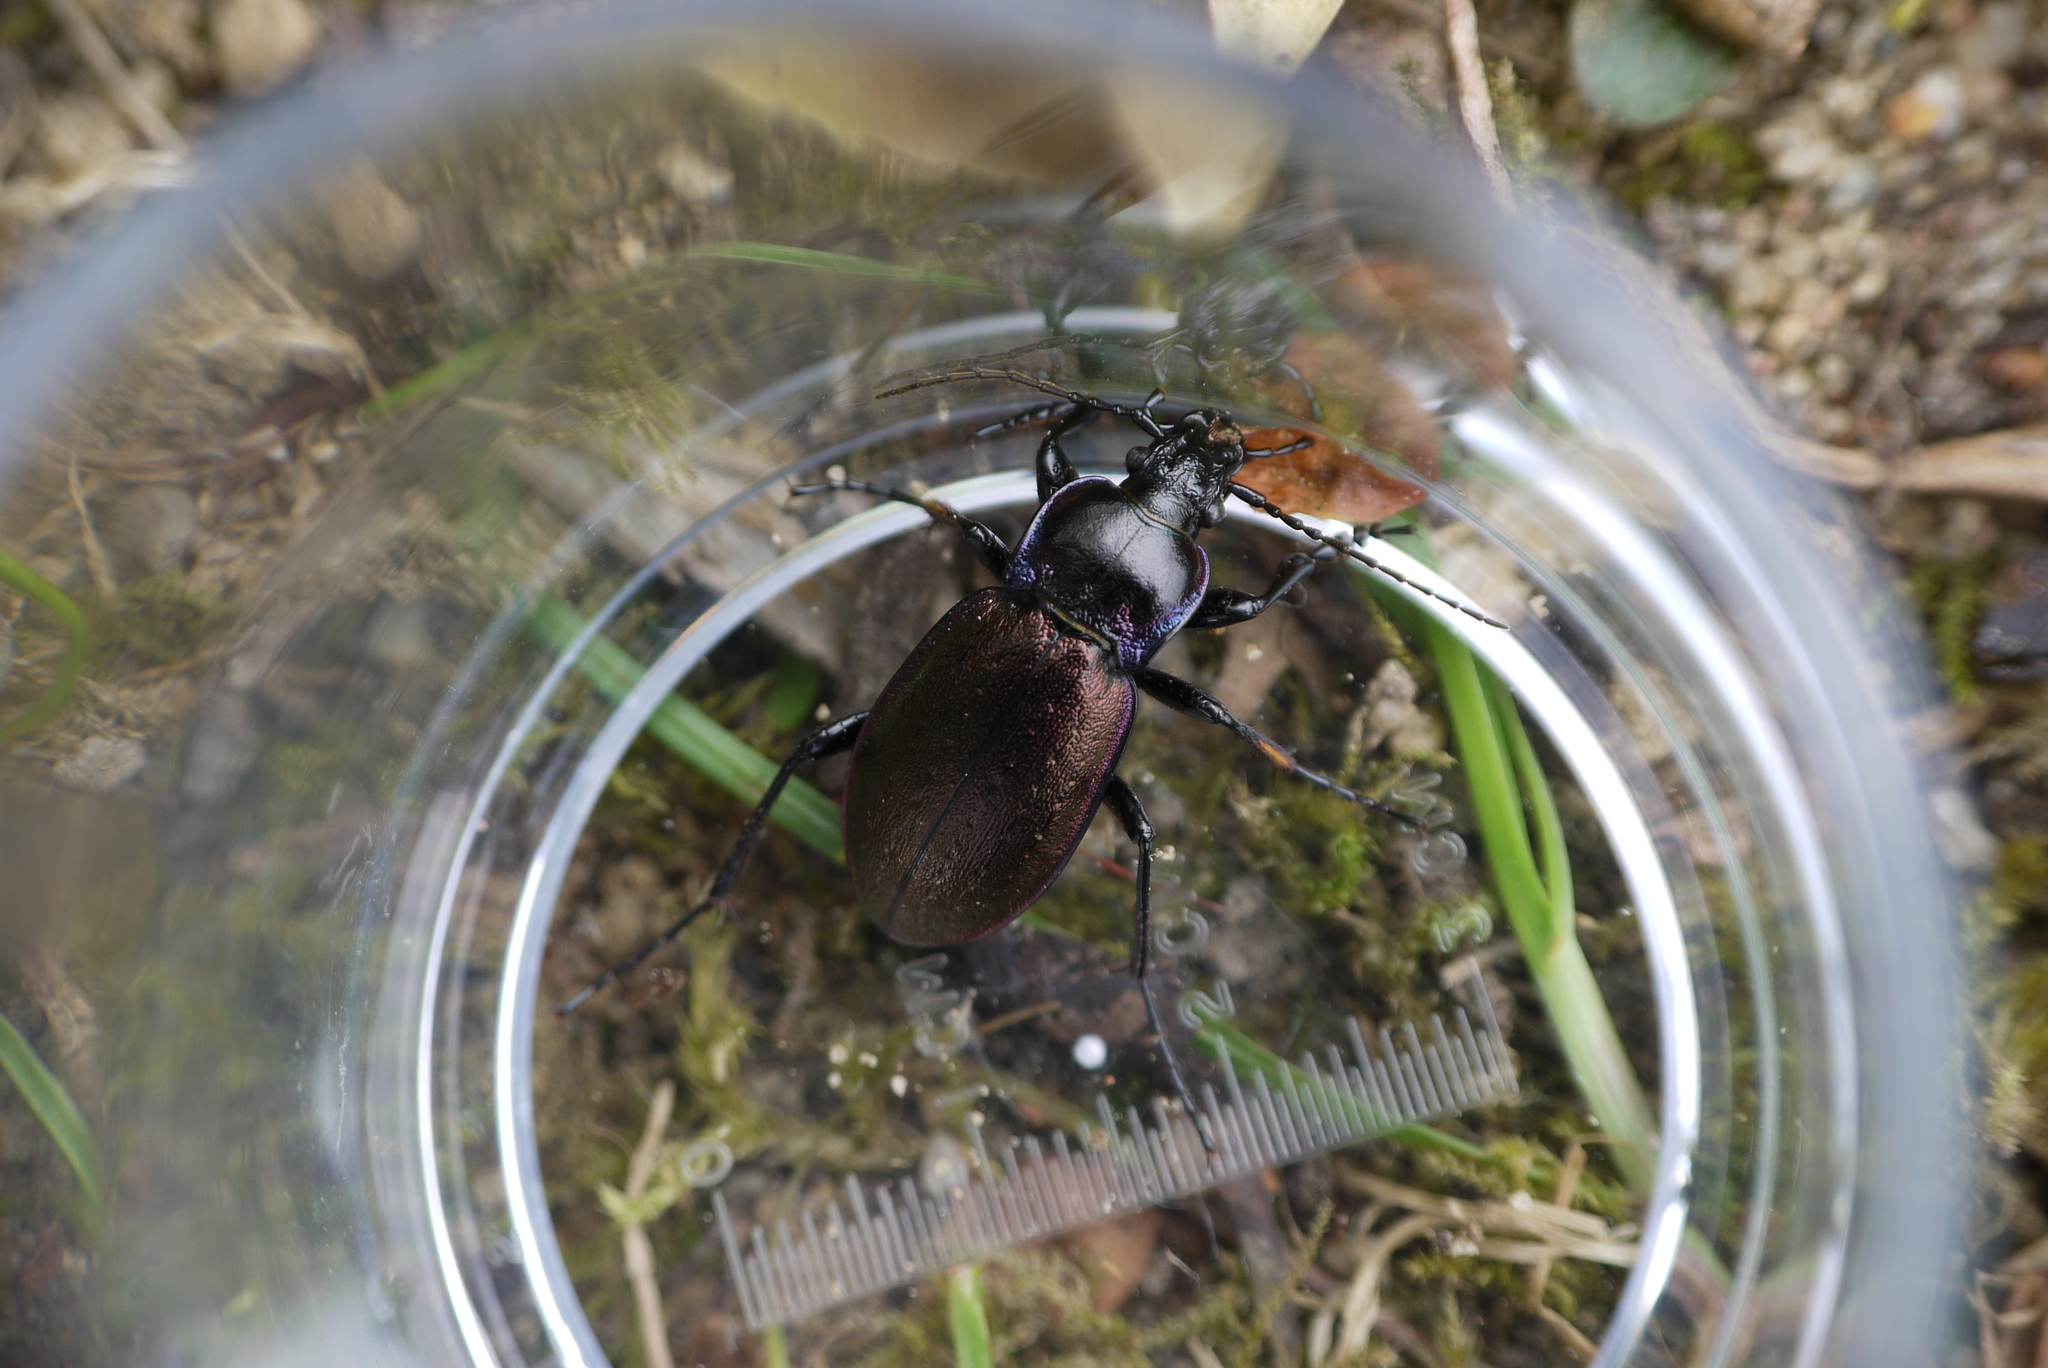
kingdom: Animalia
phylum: Arthropoda
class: Insecta
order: Coleoptera
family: Carabidae
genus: Carabus
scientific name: Carabus nemoralis
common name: European ground beetle
